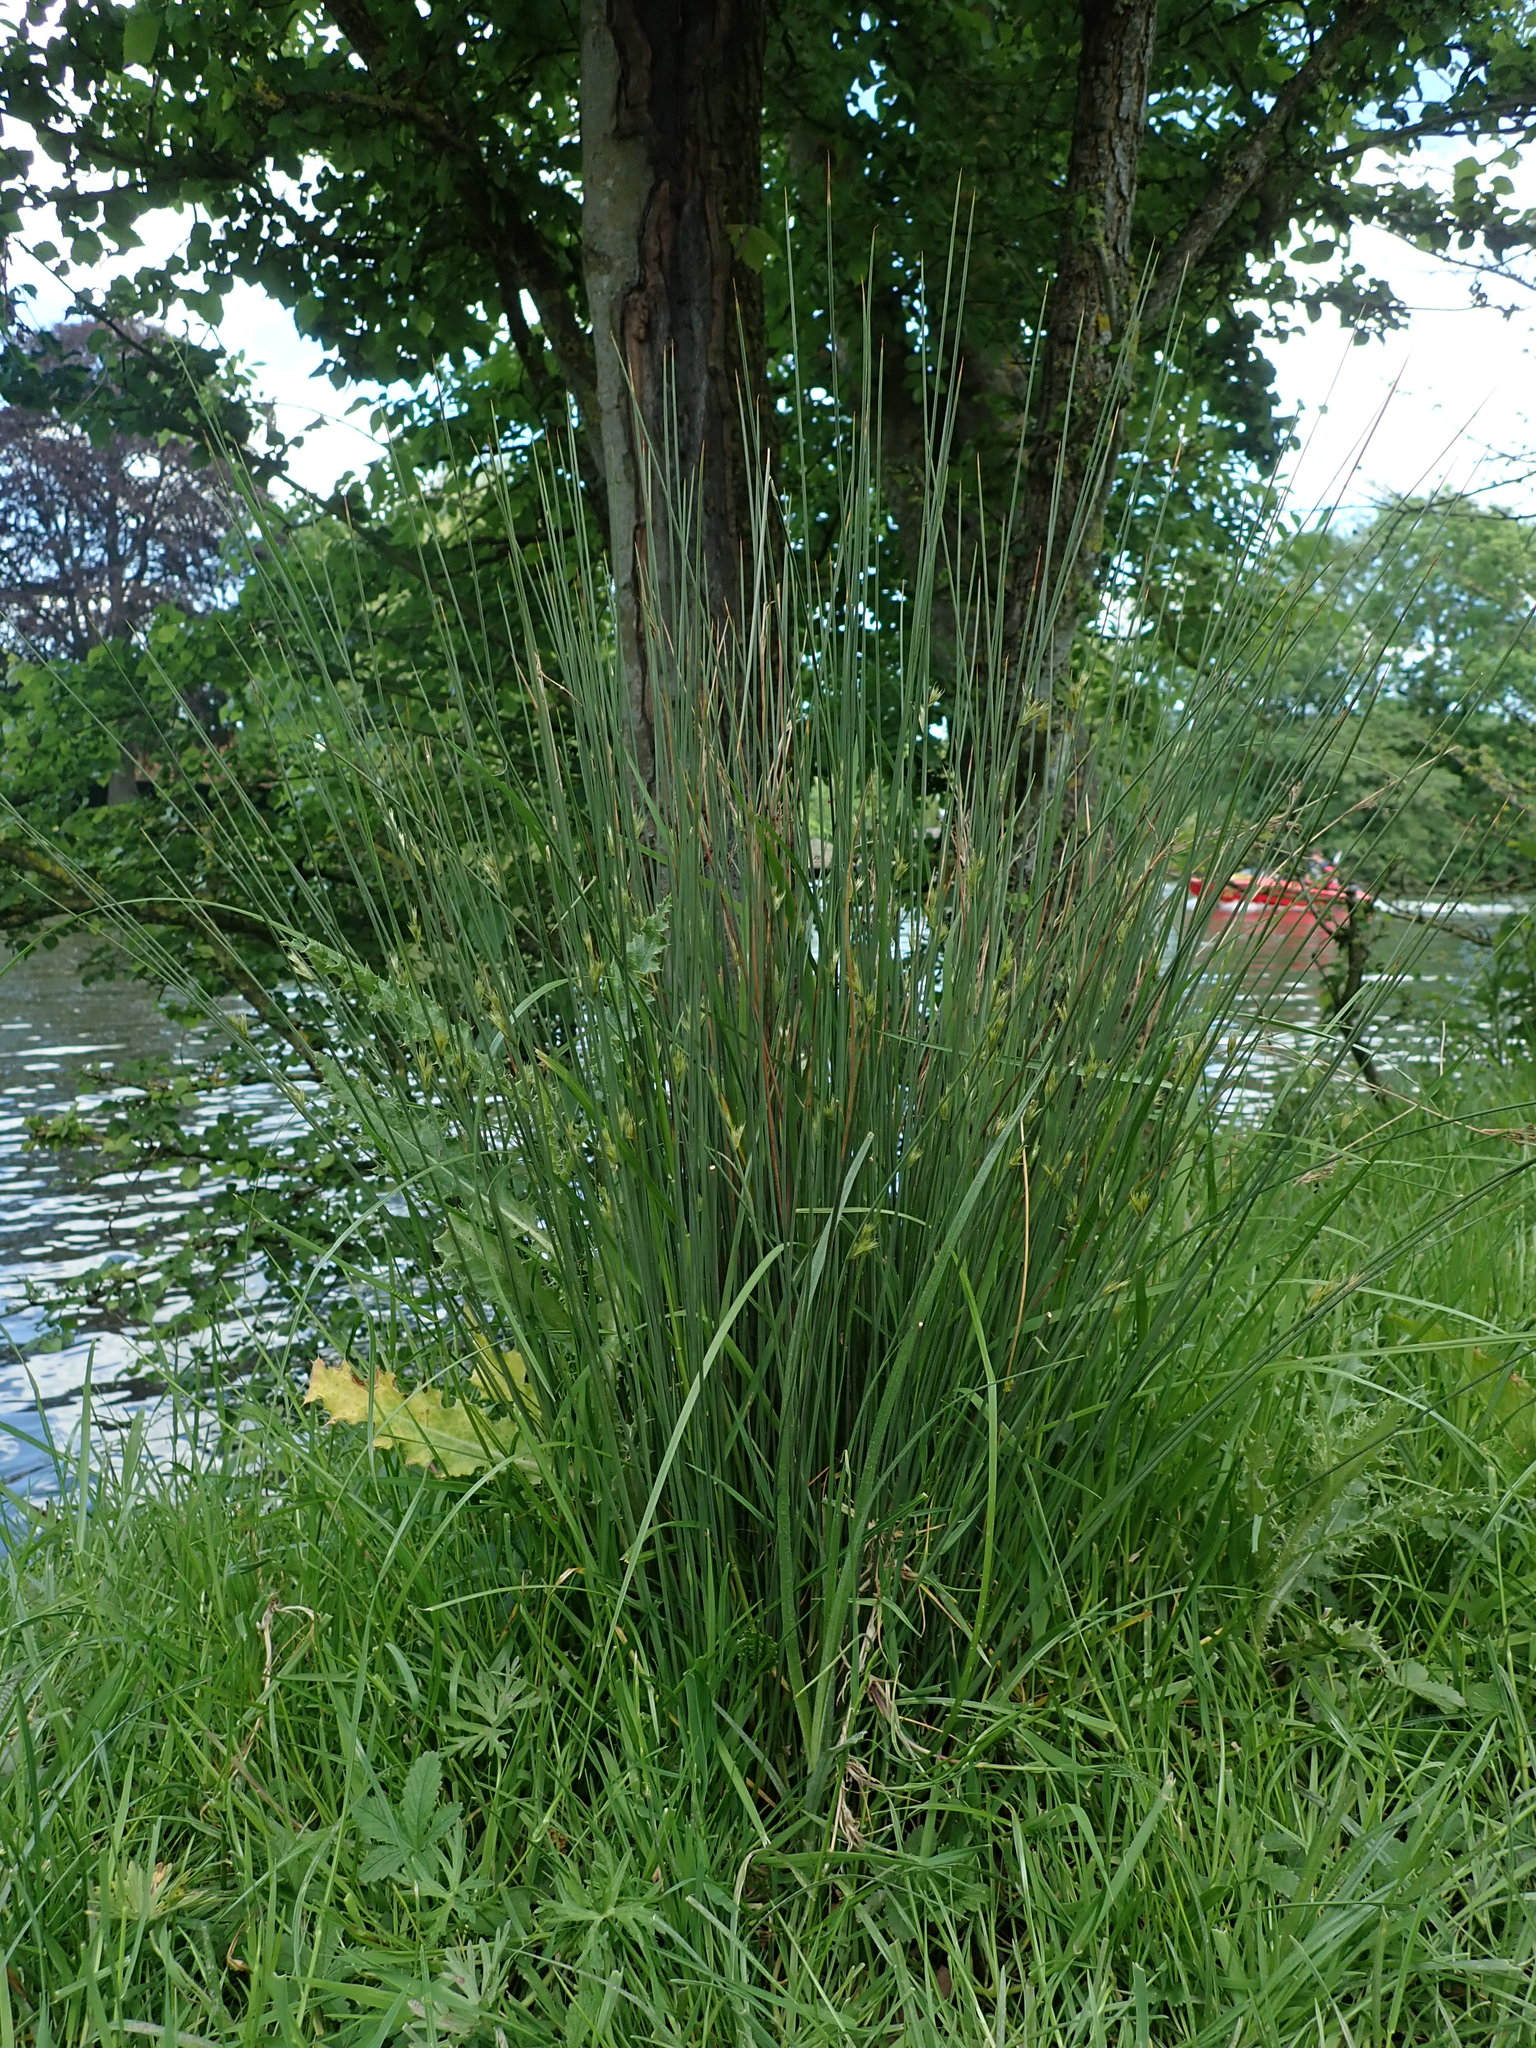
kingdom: Plantae
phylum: Tracheophyta
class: Liliopsida
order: Poales
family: Juncaceae
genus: Juncus
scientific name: Juncus inflexus
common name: Hard rush
